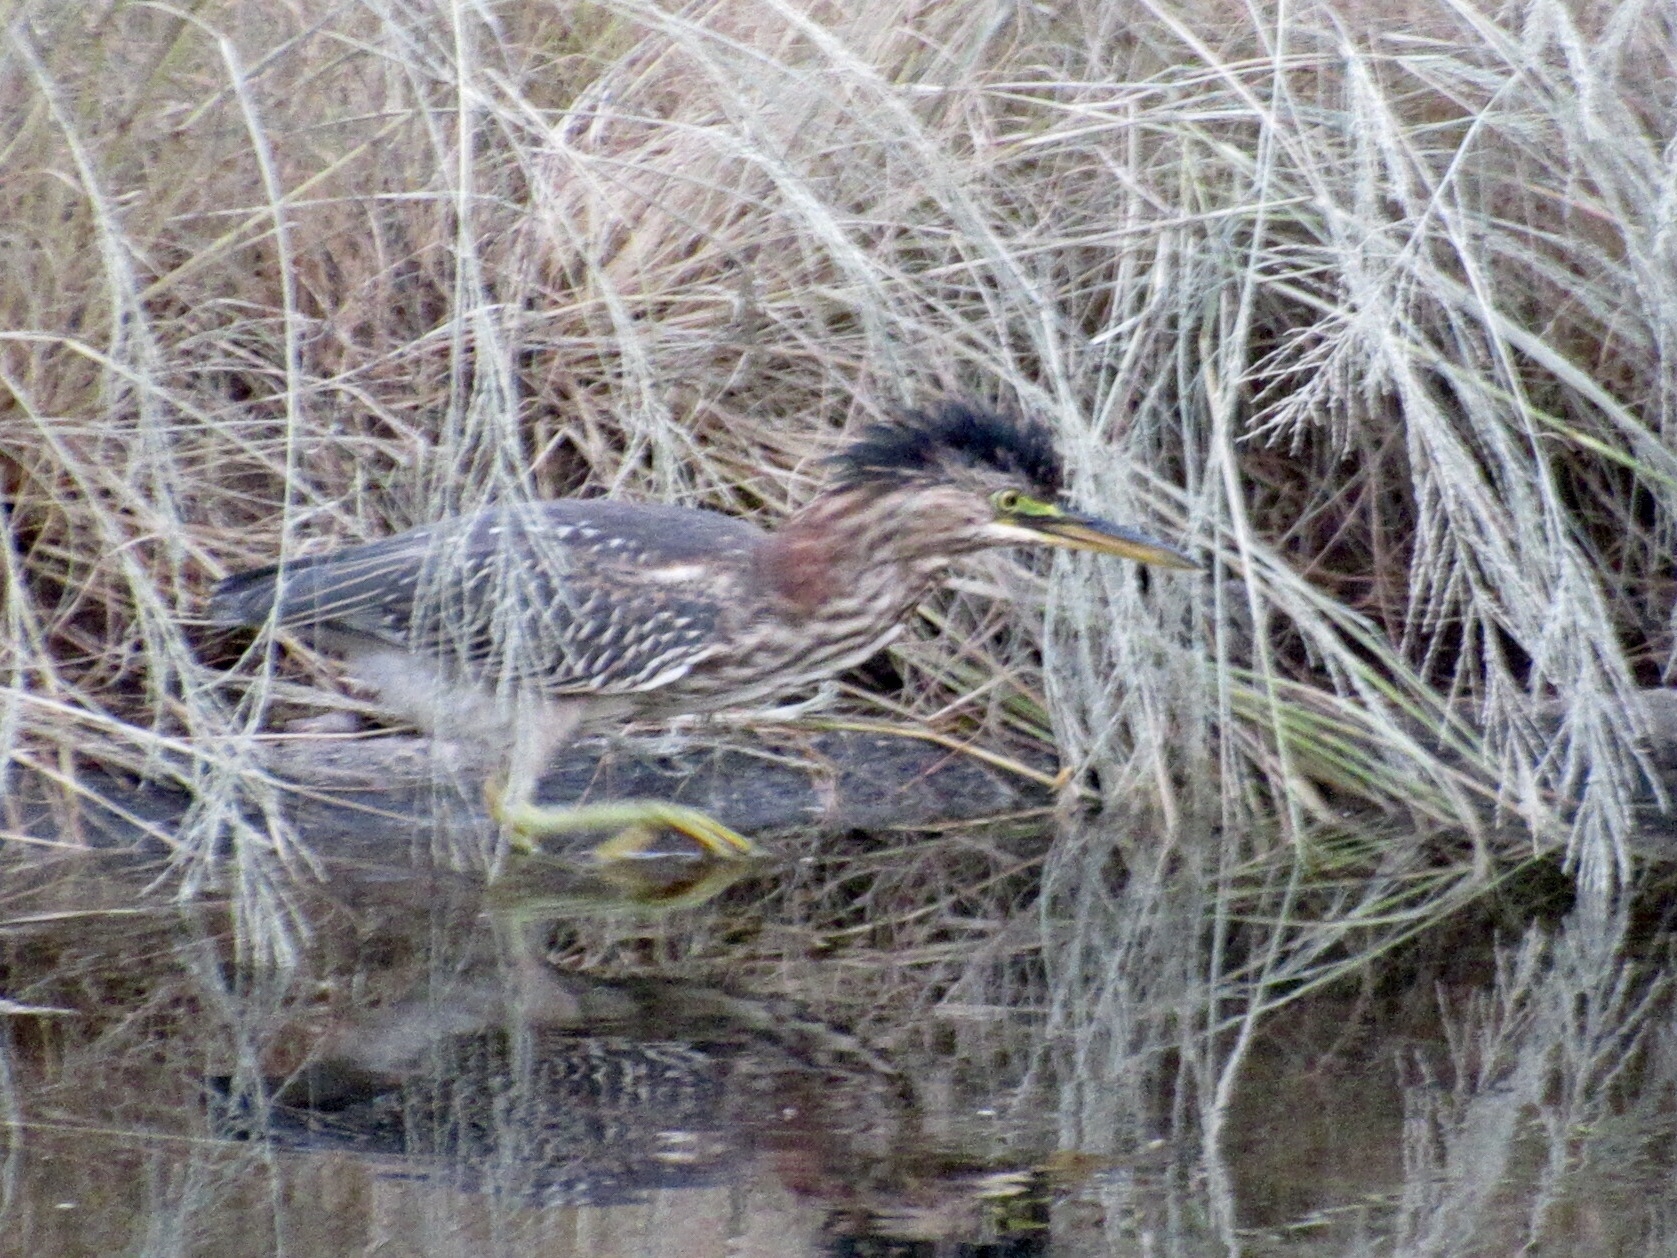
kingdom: Animalia
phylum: Chordata
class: Aves
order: Pelecaniformes
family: Ardeidae
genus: Butorides
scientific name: Butorides virescens
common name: Green heron
